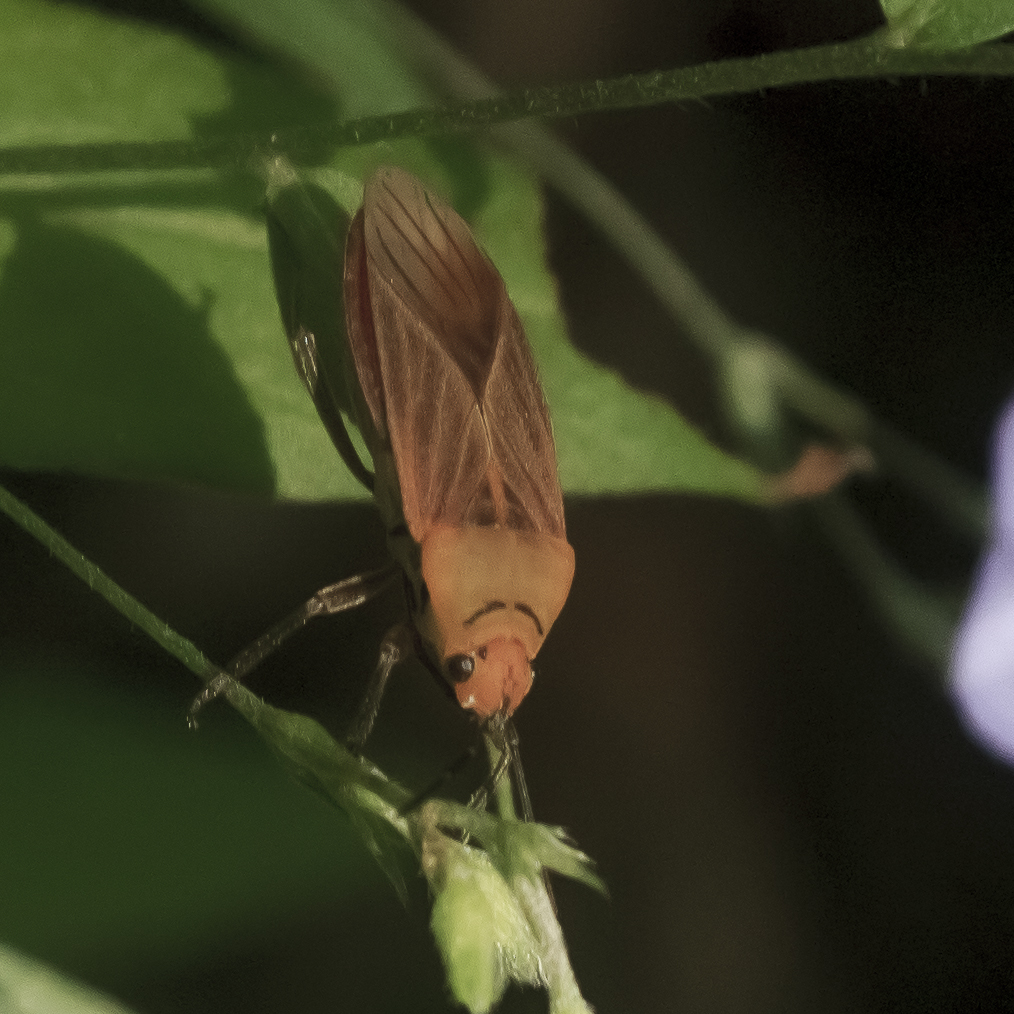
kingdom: Animalia
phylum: Arthropoda
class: Insecta
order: Hemiptera
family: Lygaeidae
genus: Hadrosomus
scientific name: Hadrosomus confraternus
